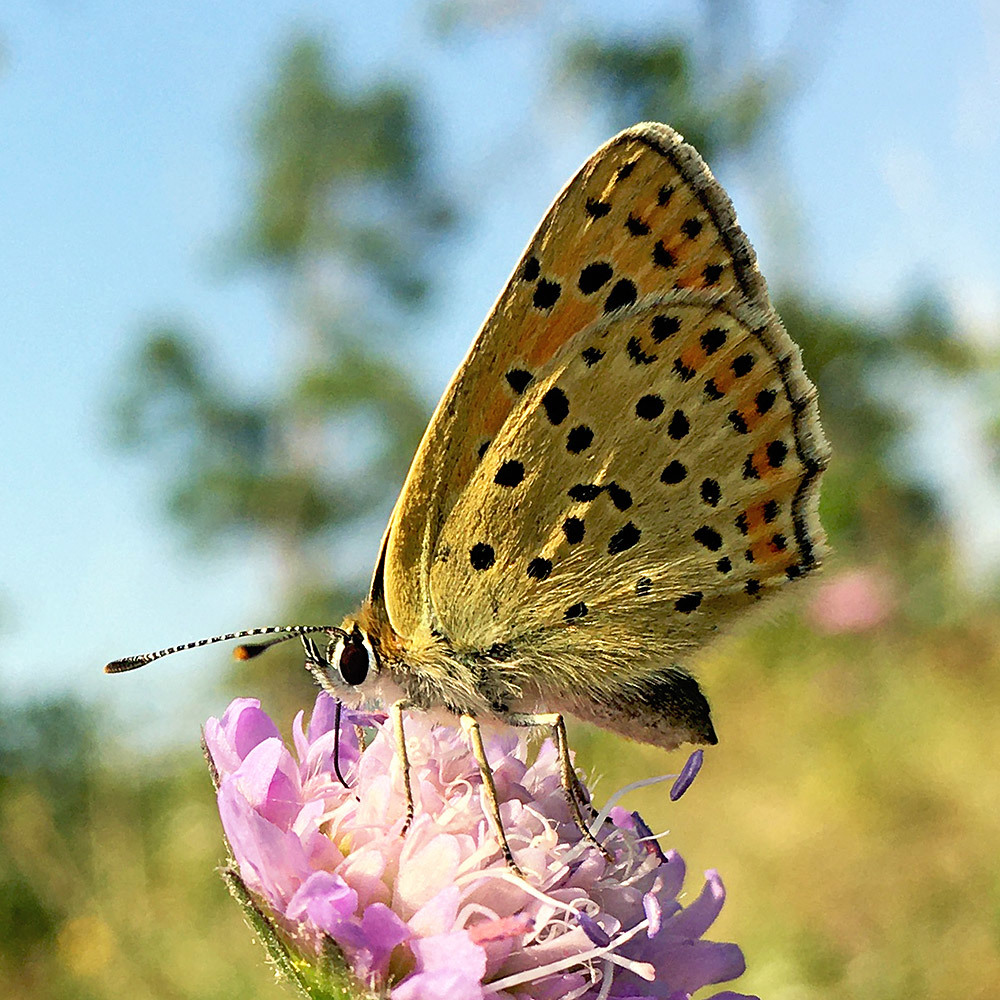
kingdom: Animalia
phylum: Arthropoda
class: Insecta
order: Lepidoptera
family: Lycaenidae
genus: Loweia
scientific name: Loweia tityrus
